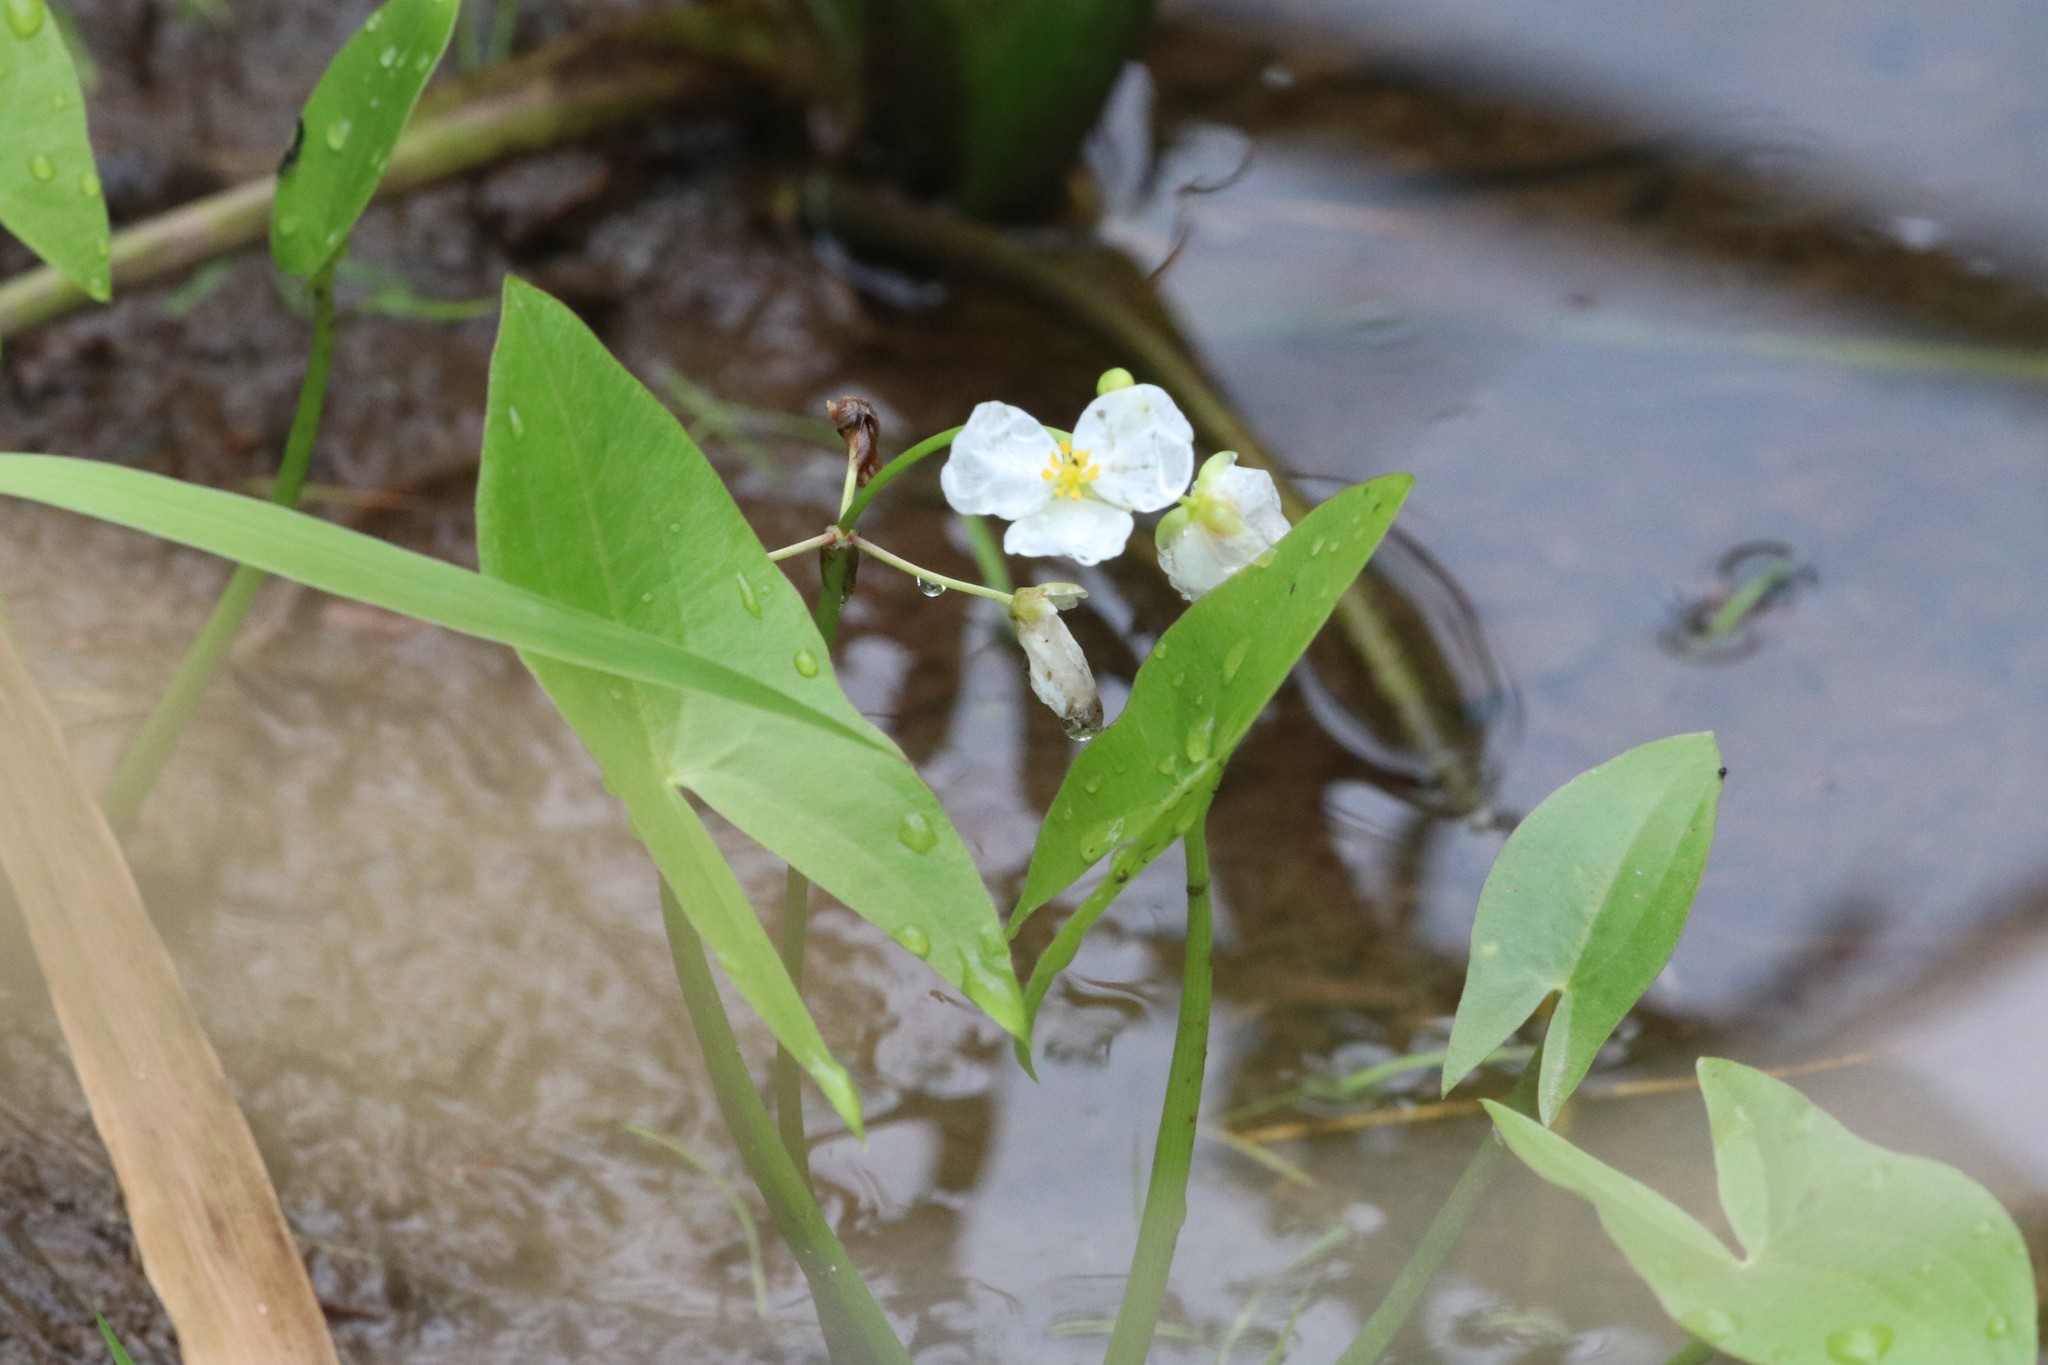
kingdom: Plantae
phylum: Tracheophyta
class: Liliopsida
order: Alismatales
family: Alismataceae
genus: Sagittaria
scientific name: Sagittaria cuneata
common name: Northern arrowhead
